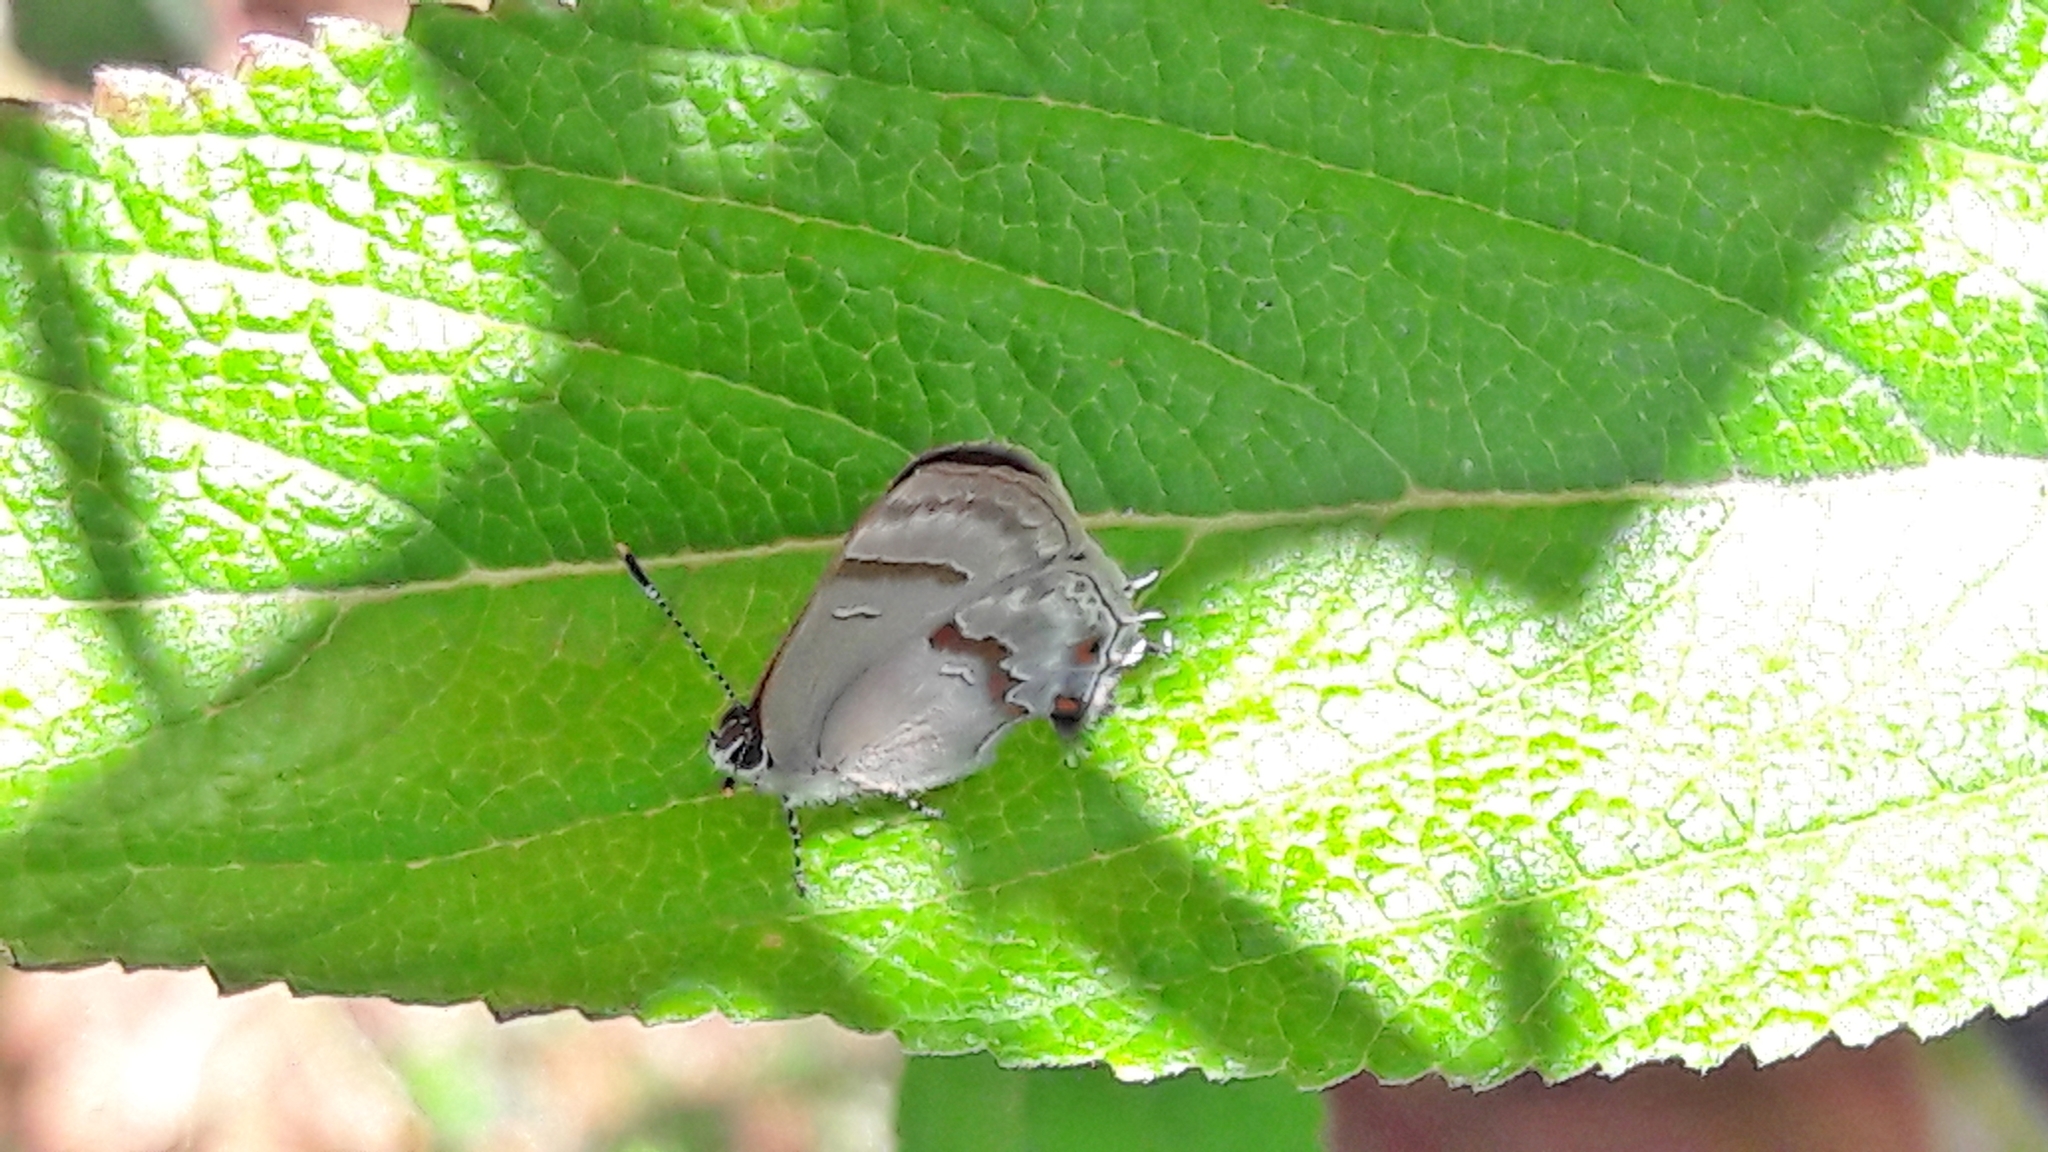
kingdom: Animalia
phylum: Arthropoda
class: Insecta
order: Lepidoptera
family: Lycaenidae
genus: Thecla
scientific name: Thecla ecbatana
